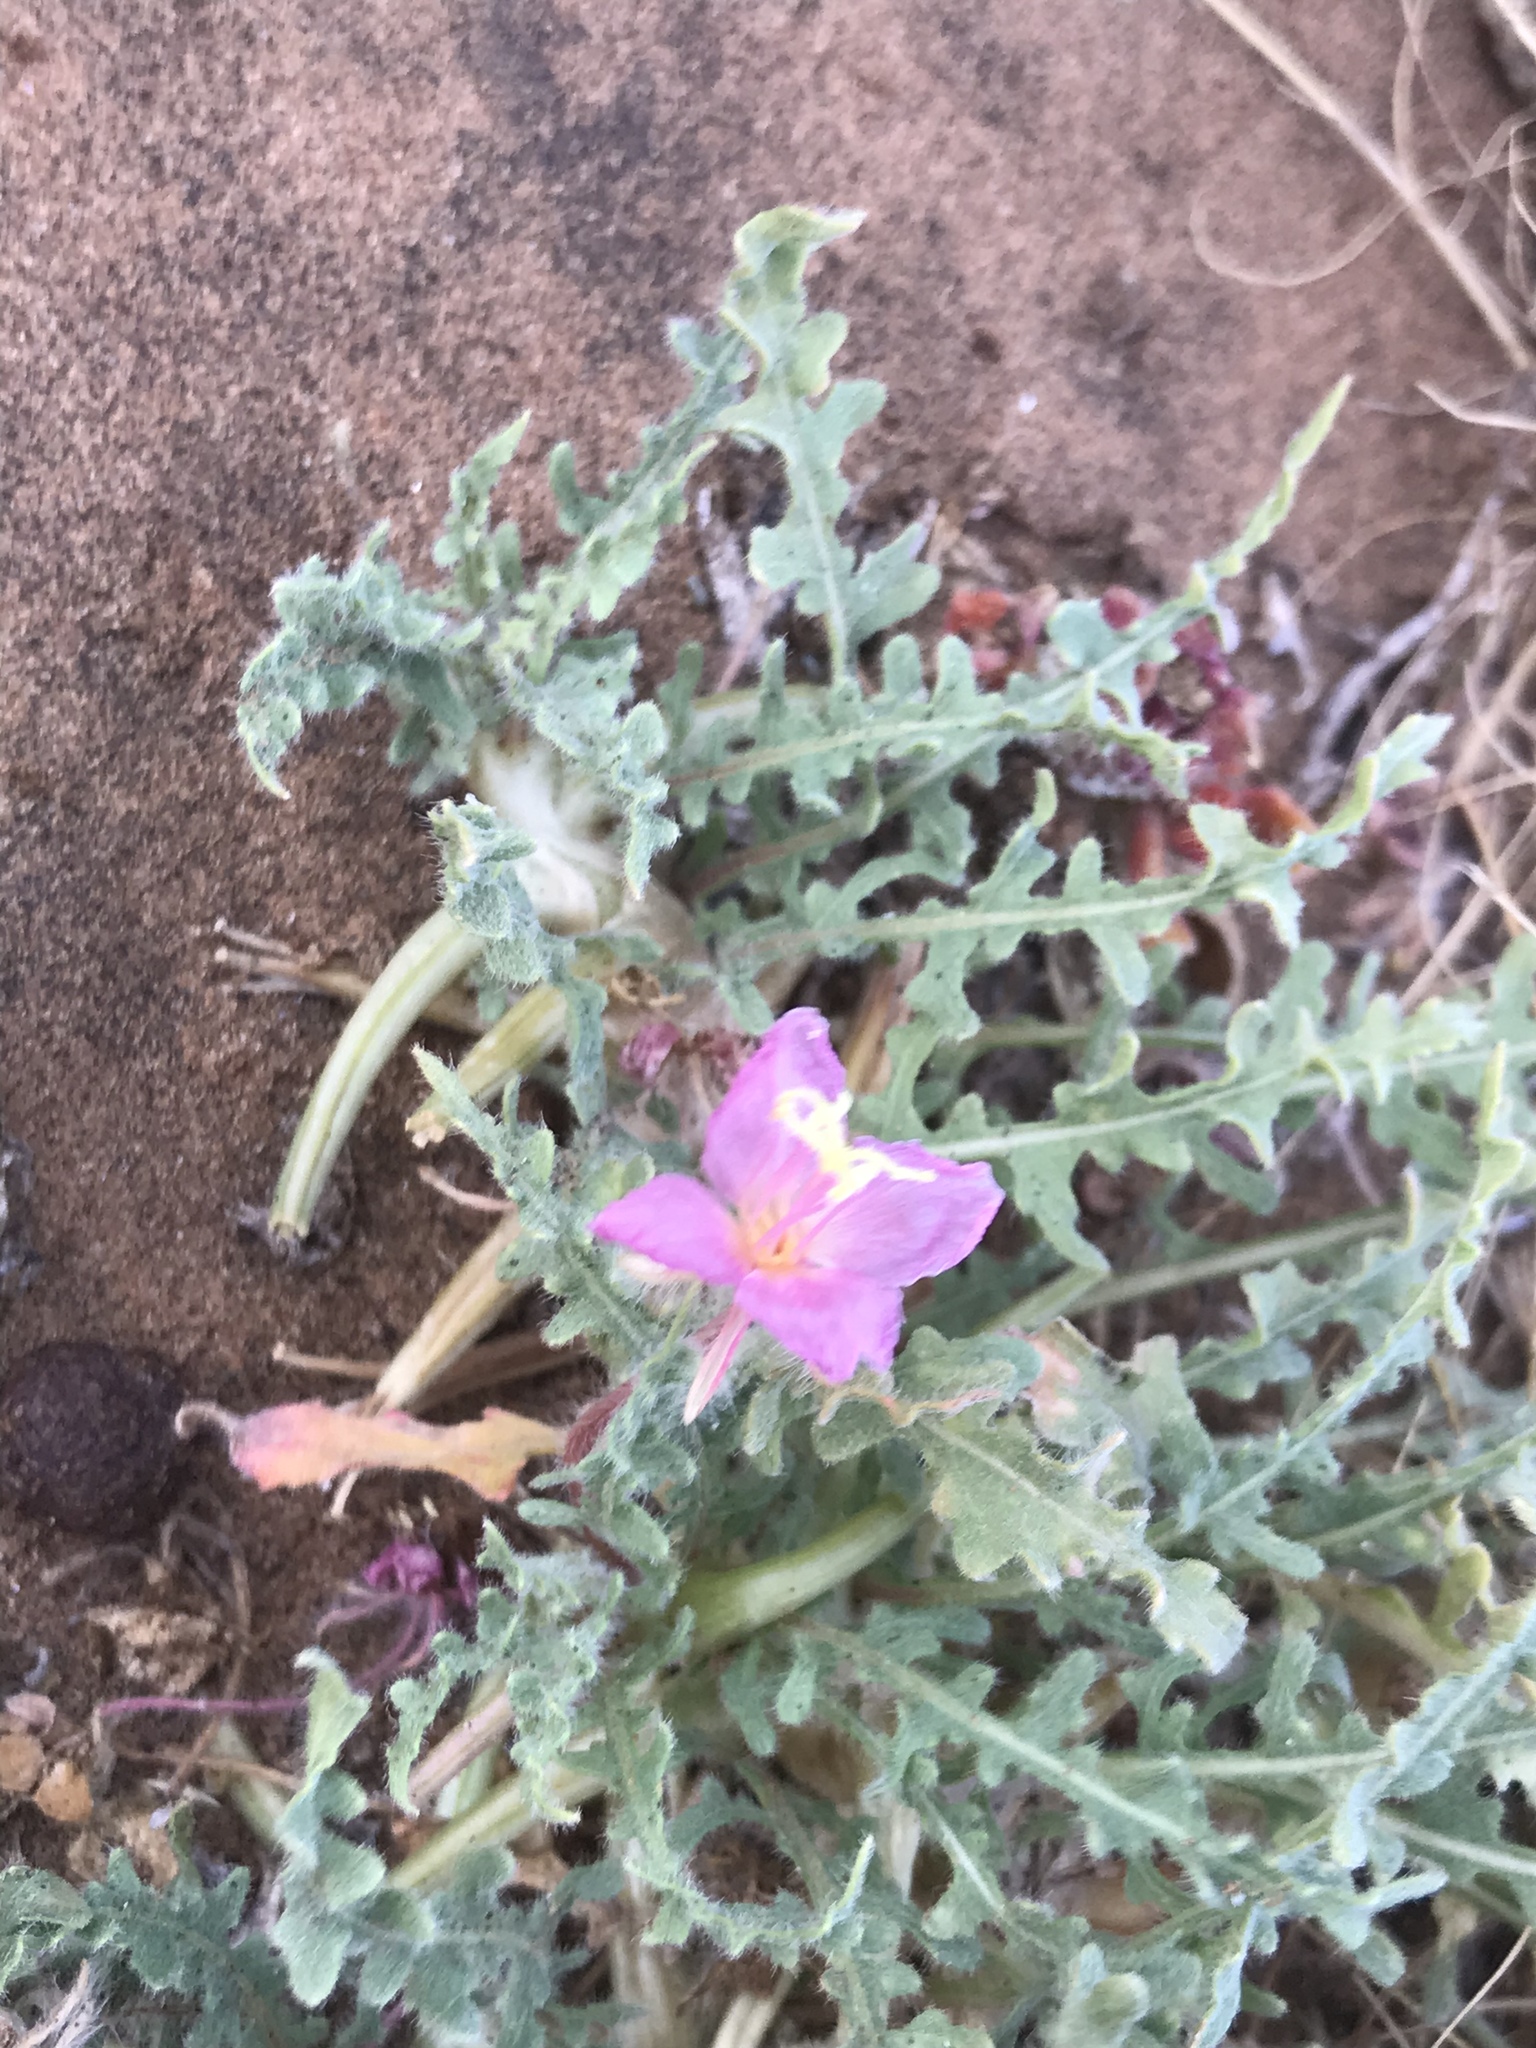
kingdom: Plantae
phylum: Tracheophyta
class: Magnoliopsida
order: Myrtales
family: Onagraceae
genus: Oenothera
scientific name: Oenothera wigginsii
